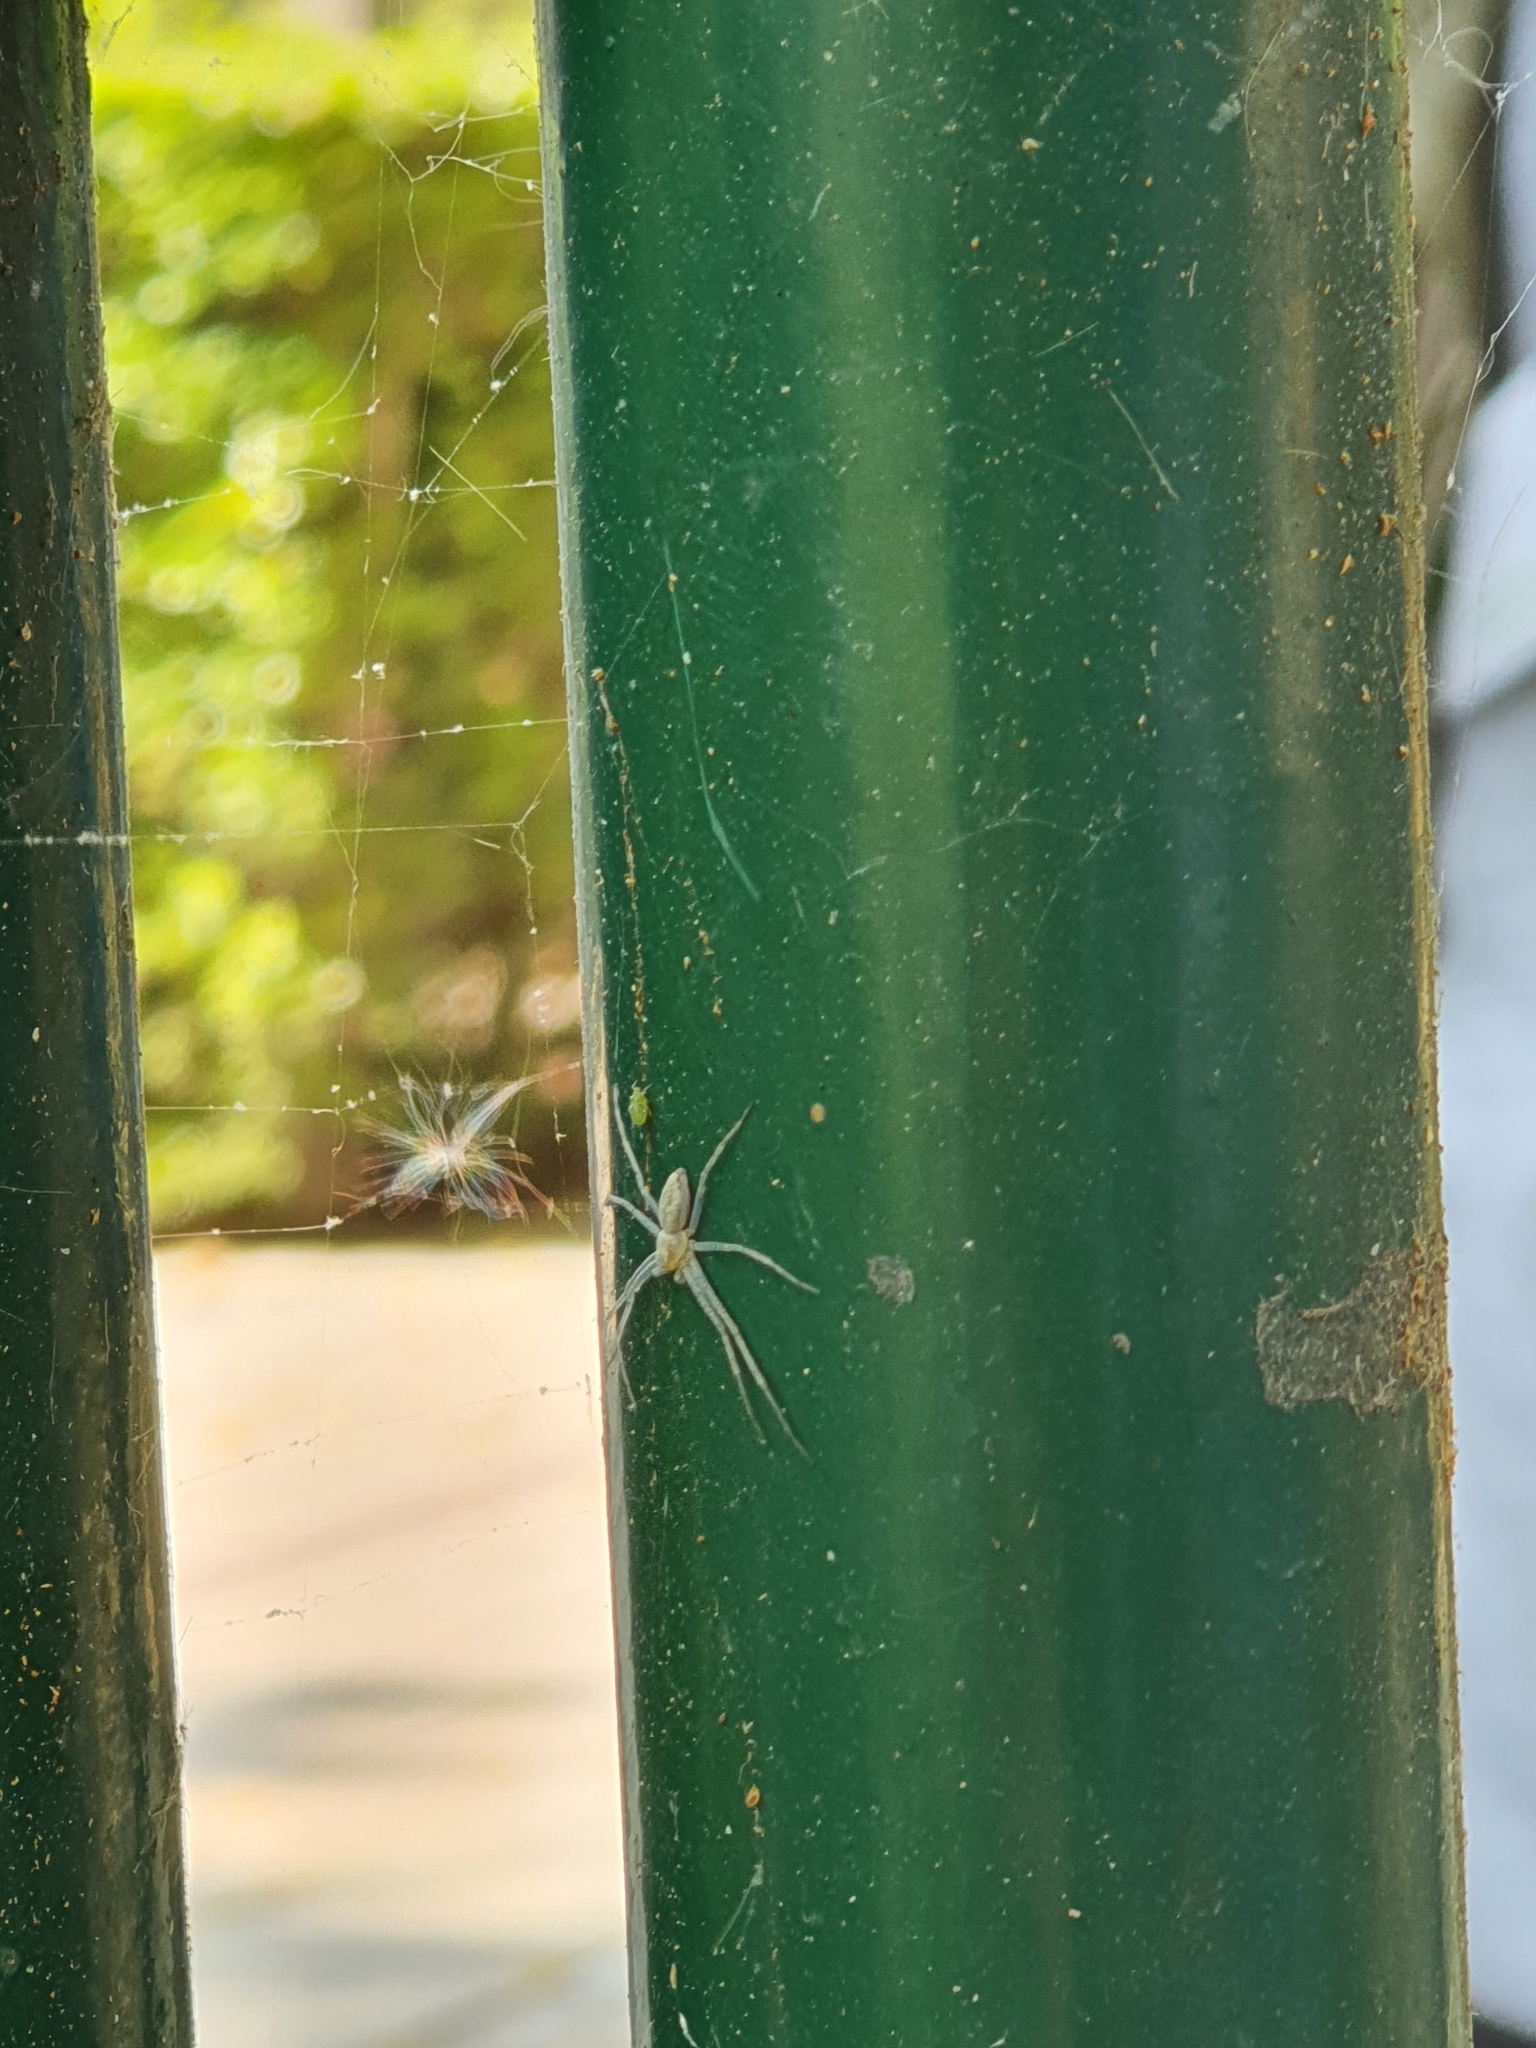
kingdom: Animalia
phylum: Arthropoda
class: Arachnida
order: Araneae
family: Philodromidae
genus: Philodromus
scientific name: Philodromus
